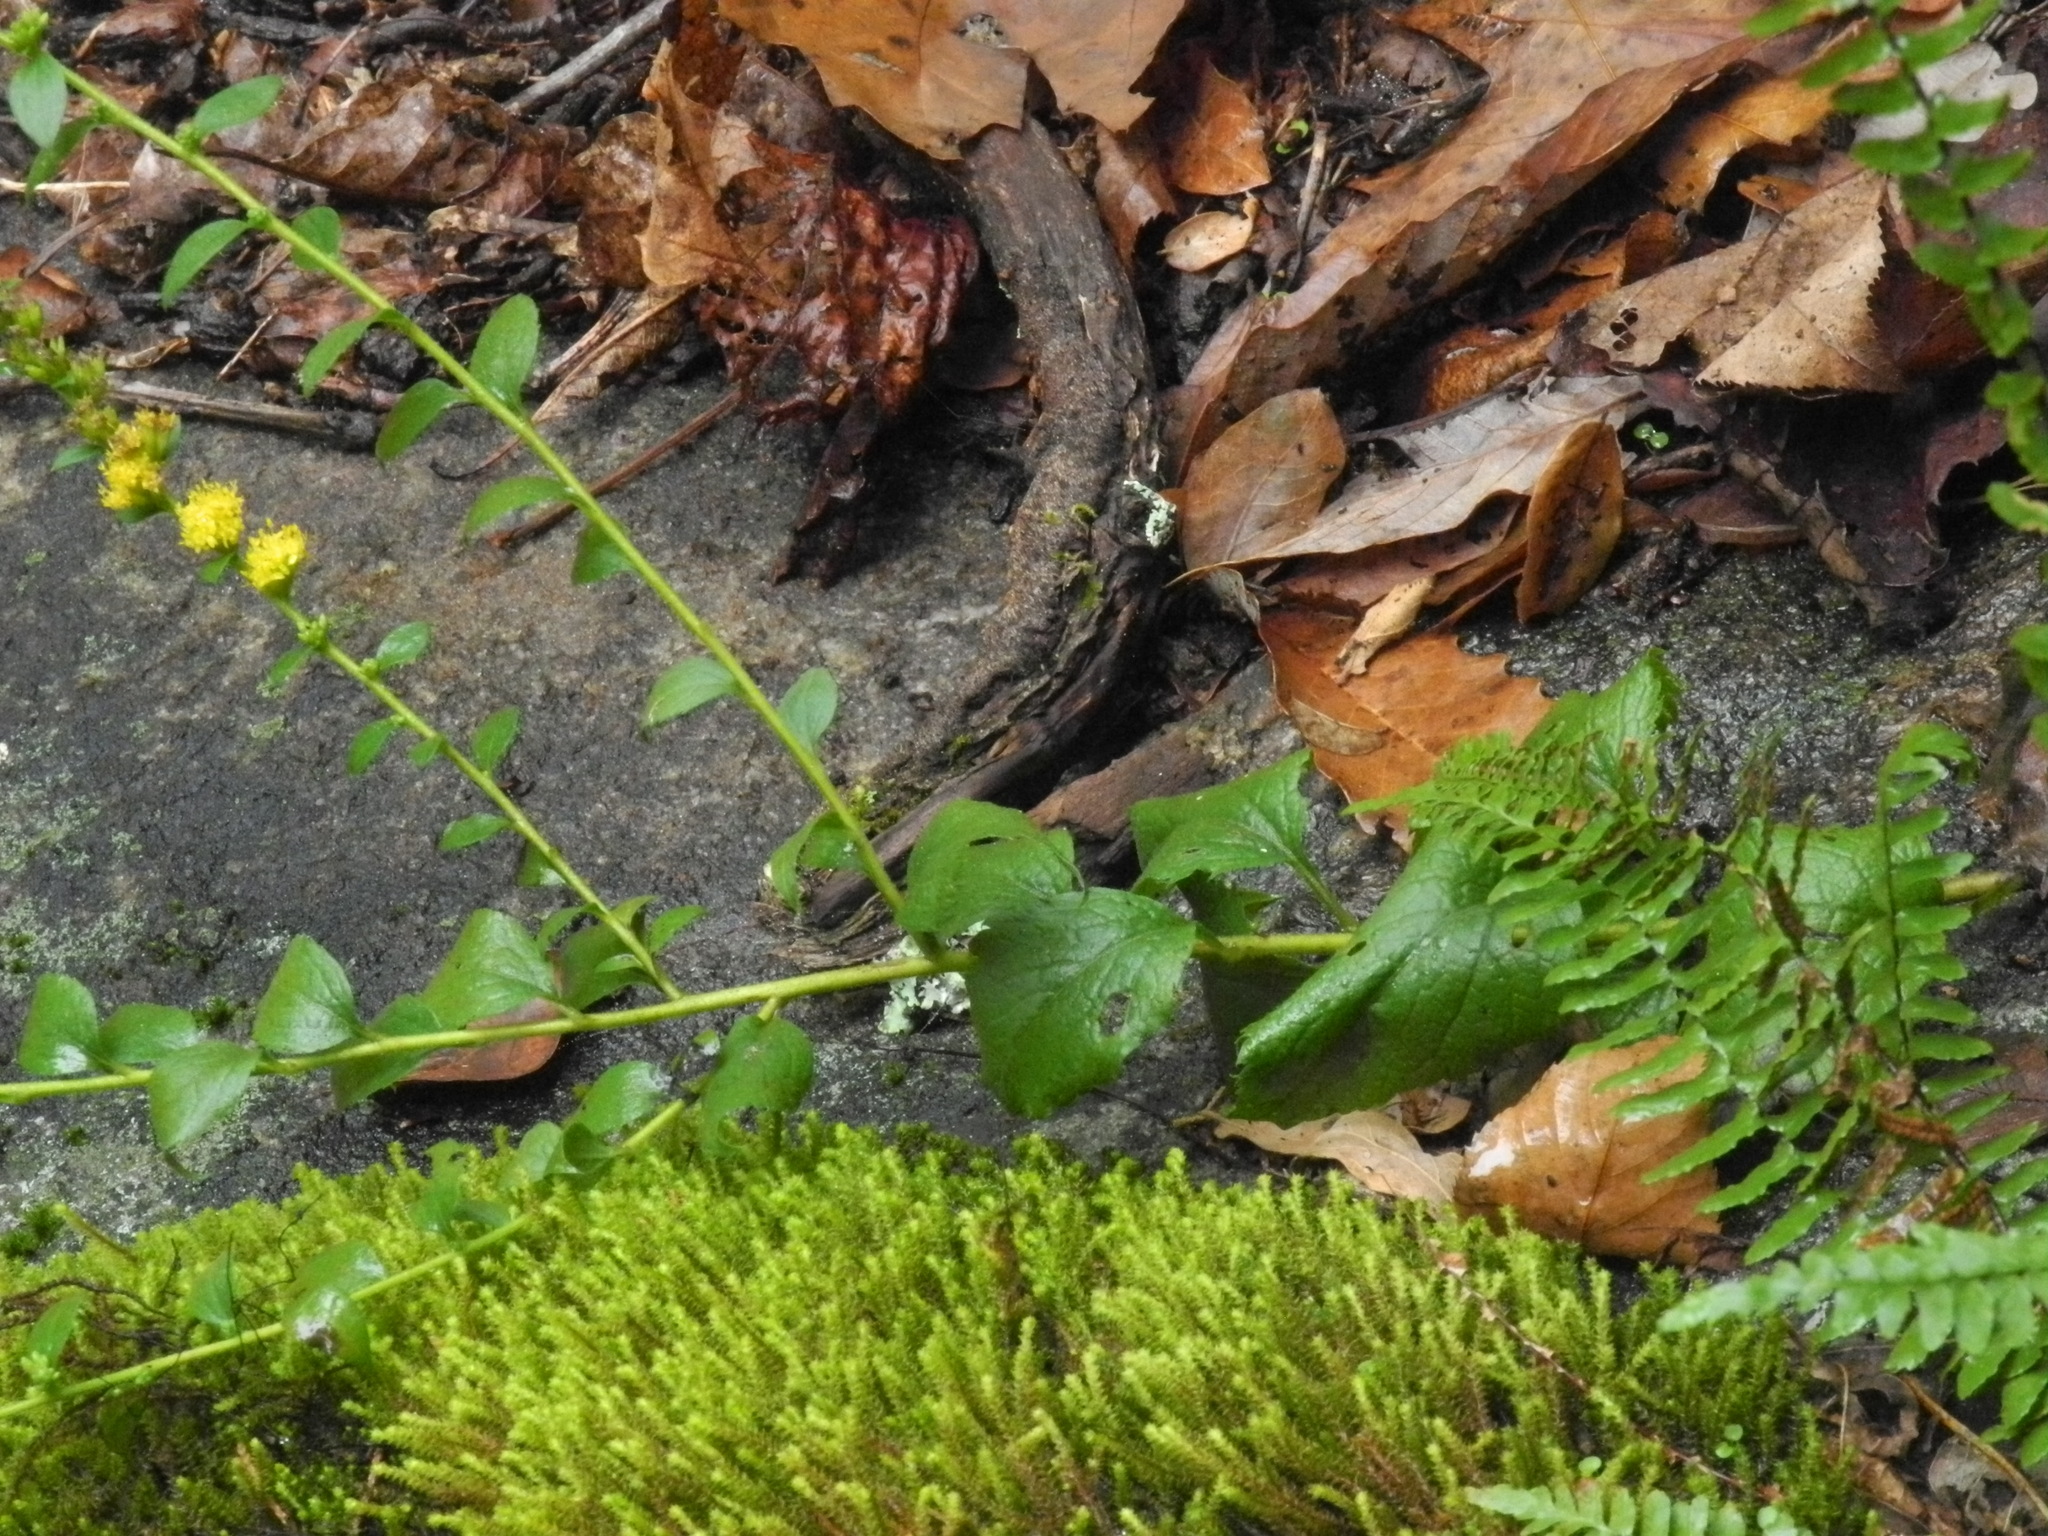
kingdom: Plantae
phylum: Tracheophyta
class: Magnoliopsida
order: Asterales
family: Asteraceae
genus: Solidago
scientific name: Solidago sphacelata
